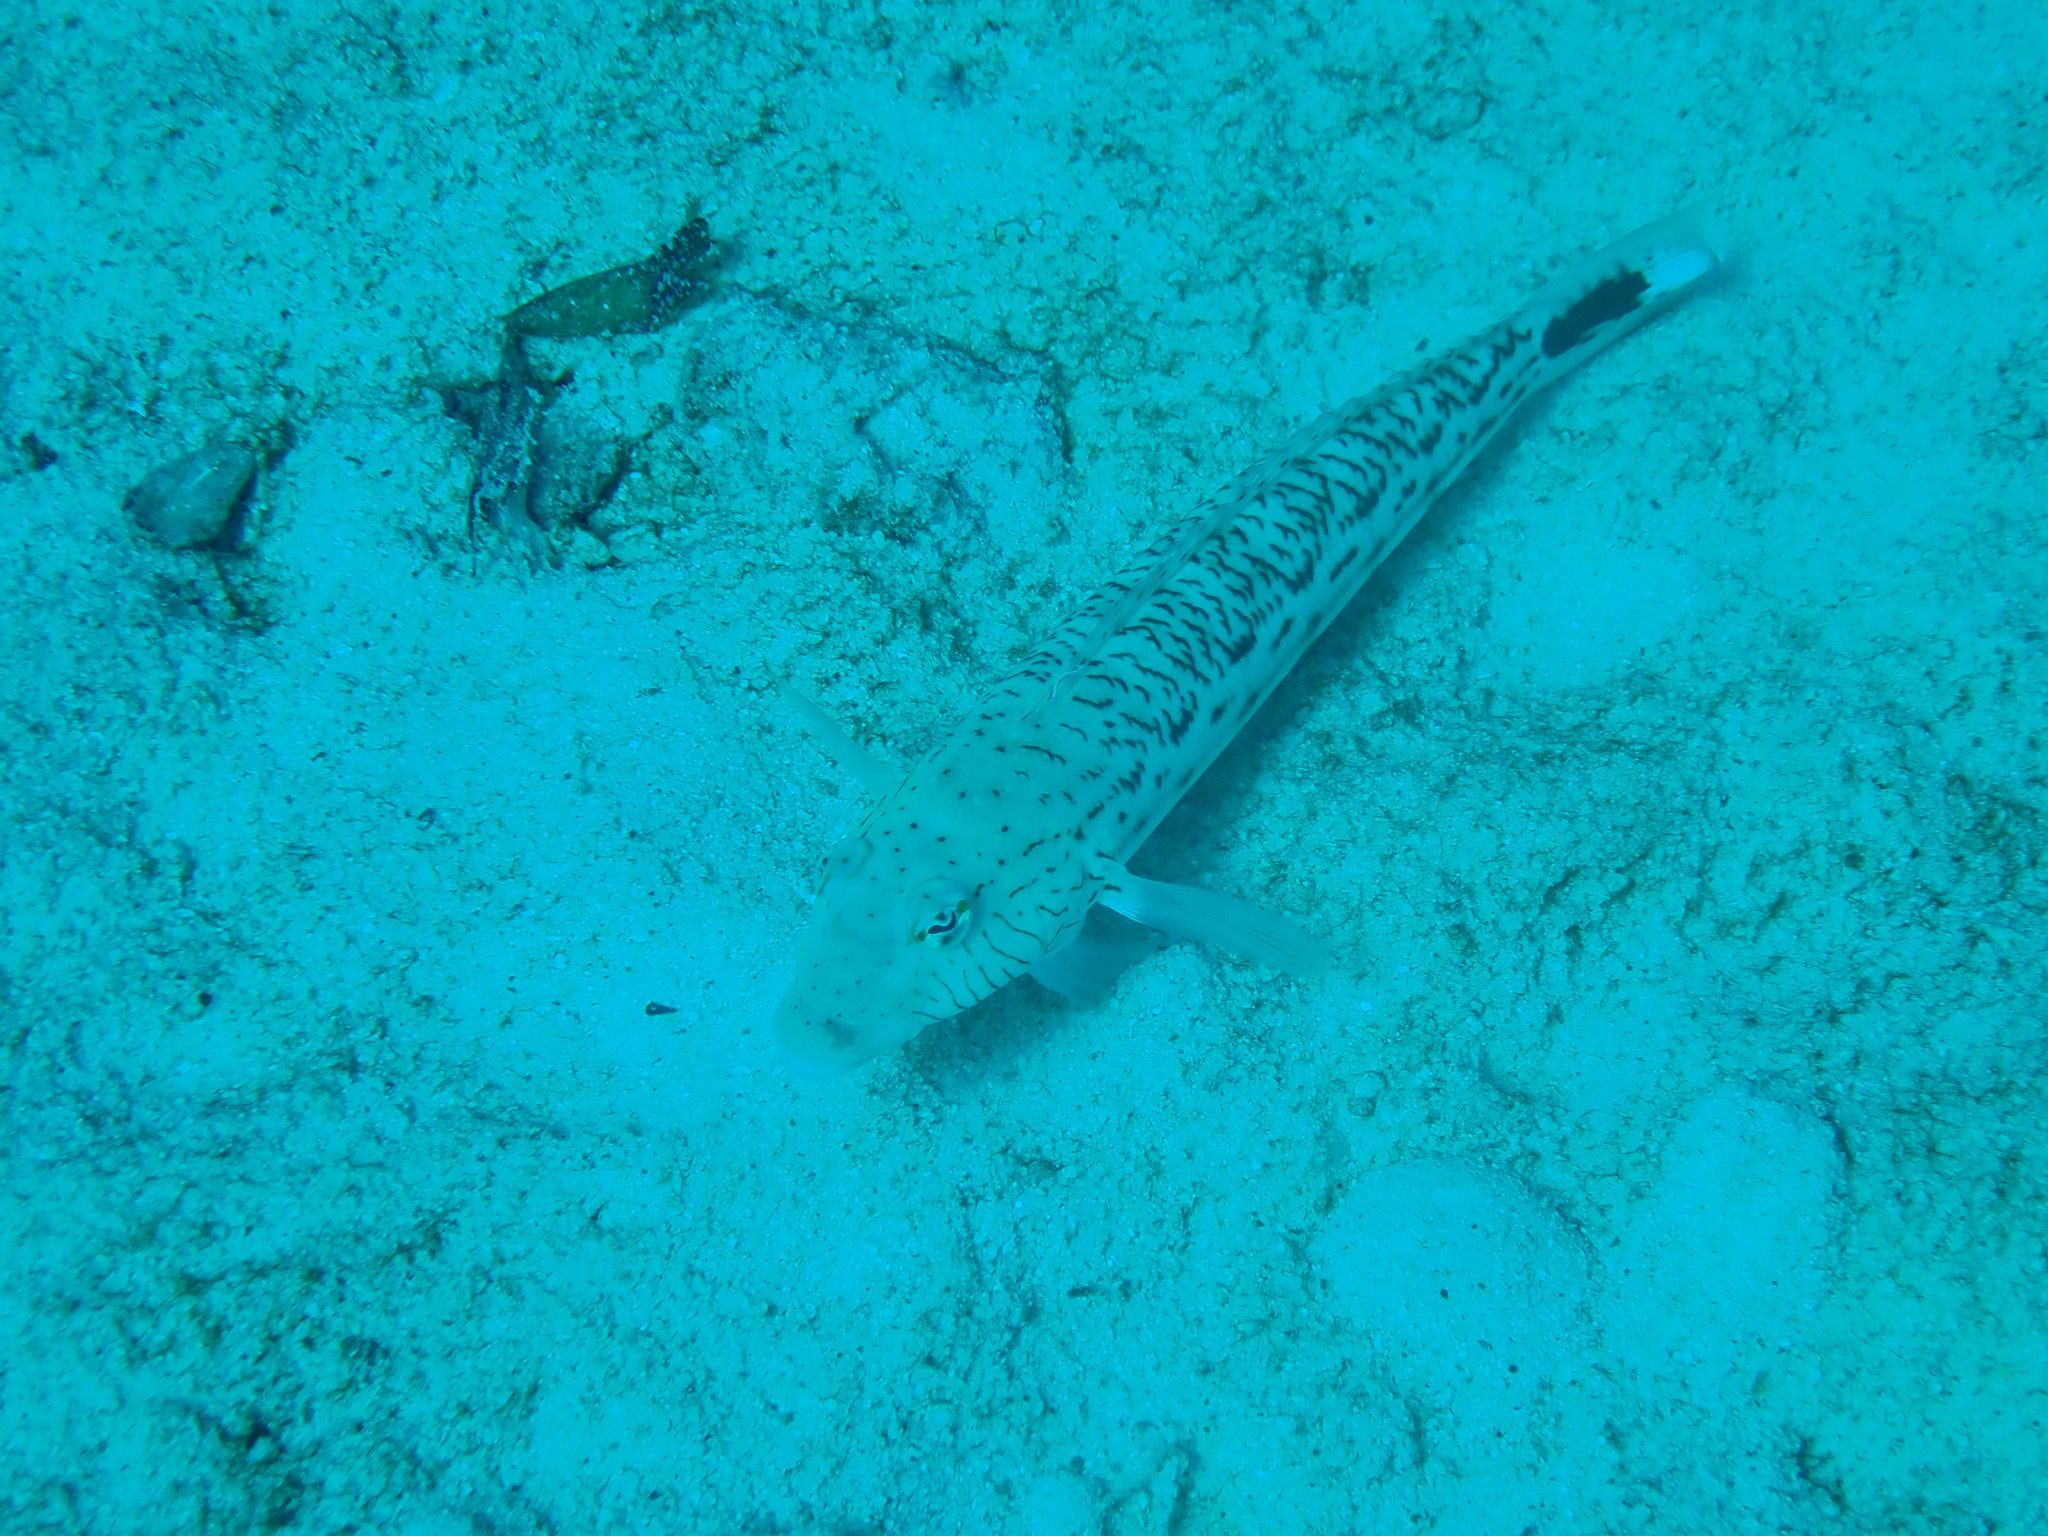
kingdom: Animalia
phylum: Chordata
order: Perciformes
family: Pinguipedidae
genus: Parapercis
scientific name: Parapercis hexophtalma
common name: Speckled sandperch
